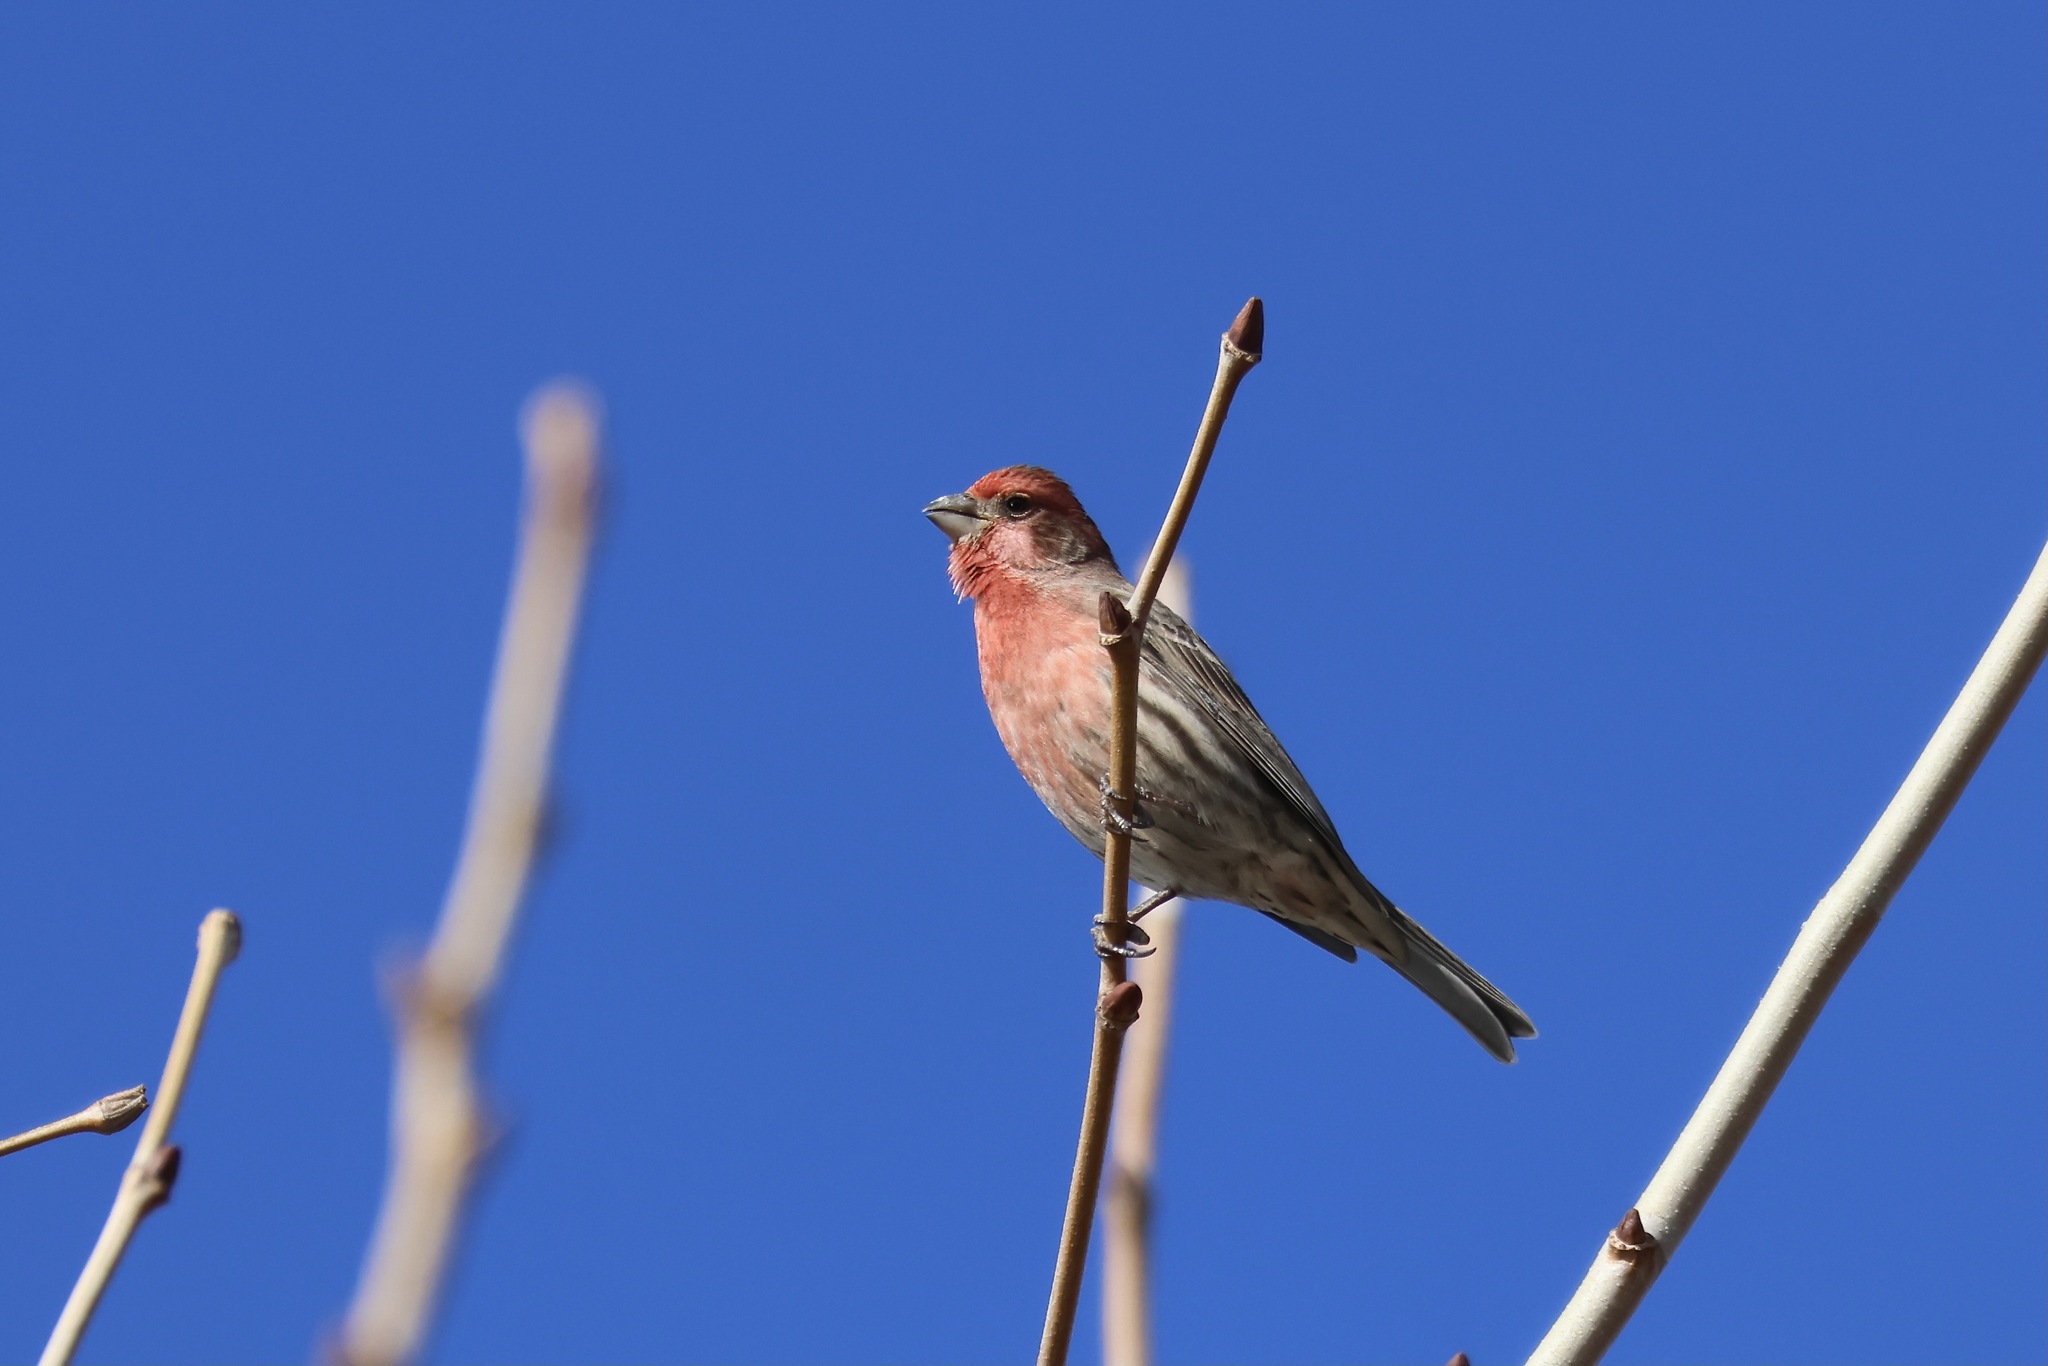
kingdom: Animalia
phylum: Chordata
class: Aves
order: Passeriformes
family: Fringillidae
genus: Haemorhous
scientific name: Haemorhous mexicanus
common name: House finch
